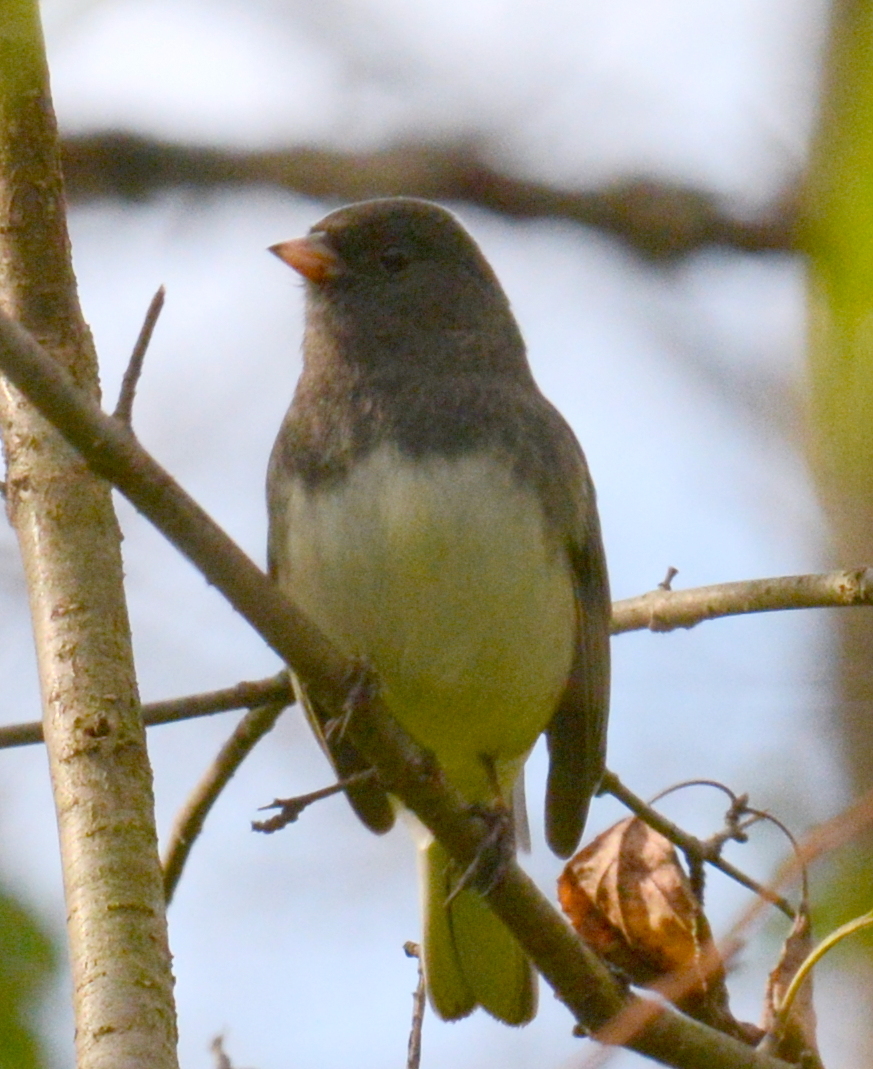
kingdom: Animalia
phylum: Chordata
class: Aves
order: Passeriformes
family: Passerellidae
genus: Junco
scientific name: Junco hyemalis
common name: Dark-eyed junco
